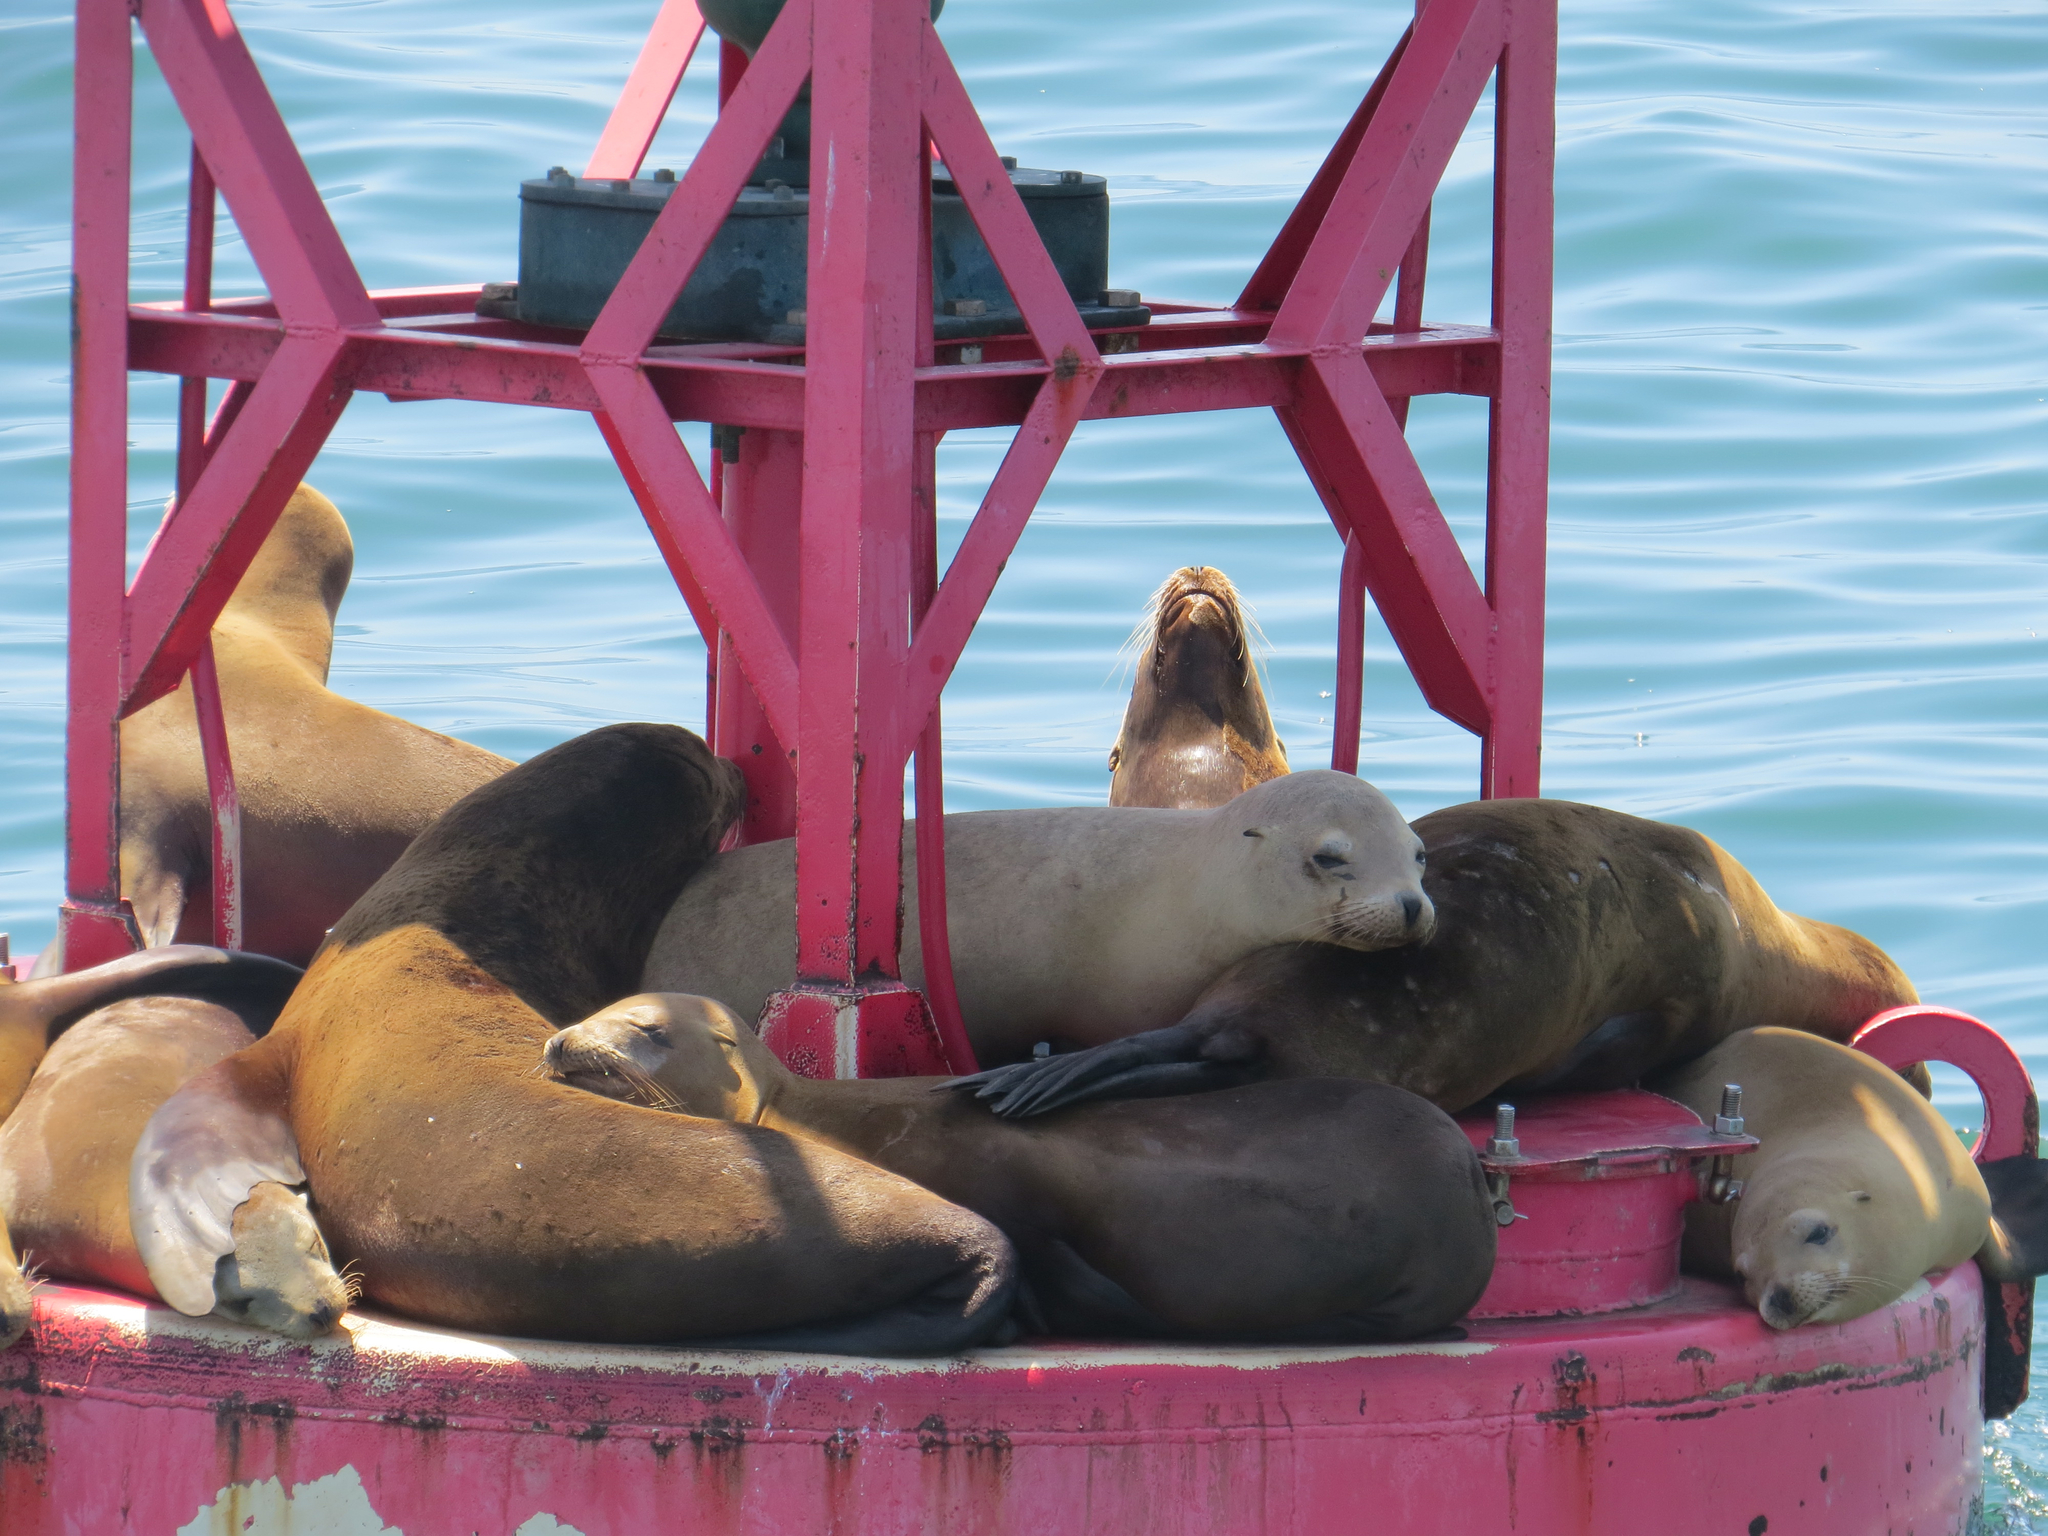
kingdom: Animalia
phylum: Chordata
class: Mammalia
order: Carnivora
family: Otariidae
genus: Zalophus
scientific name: Zalophus californianus
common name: California sea lion
